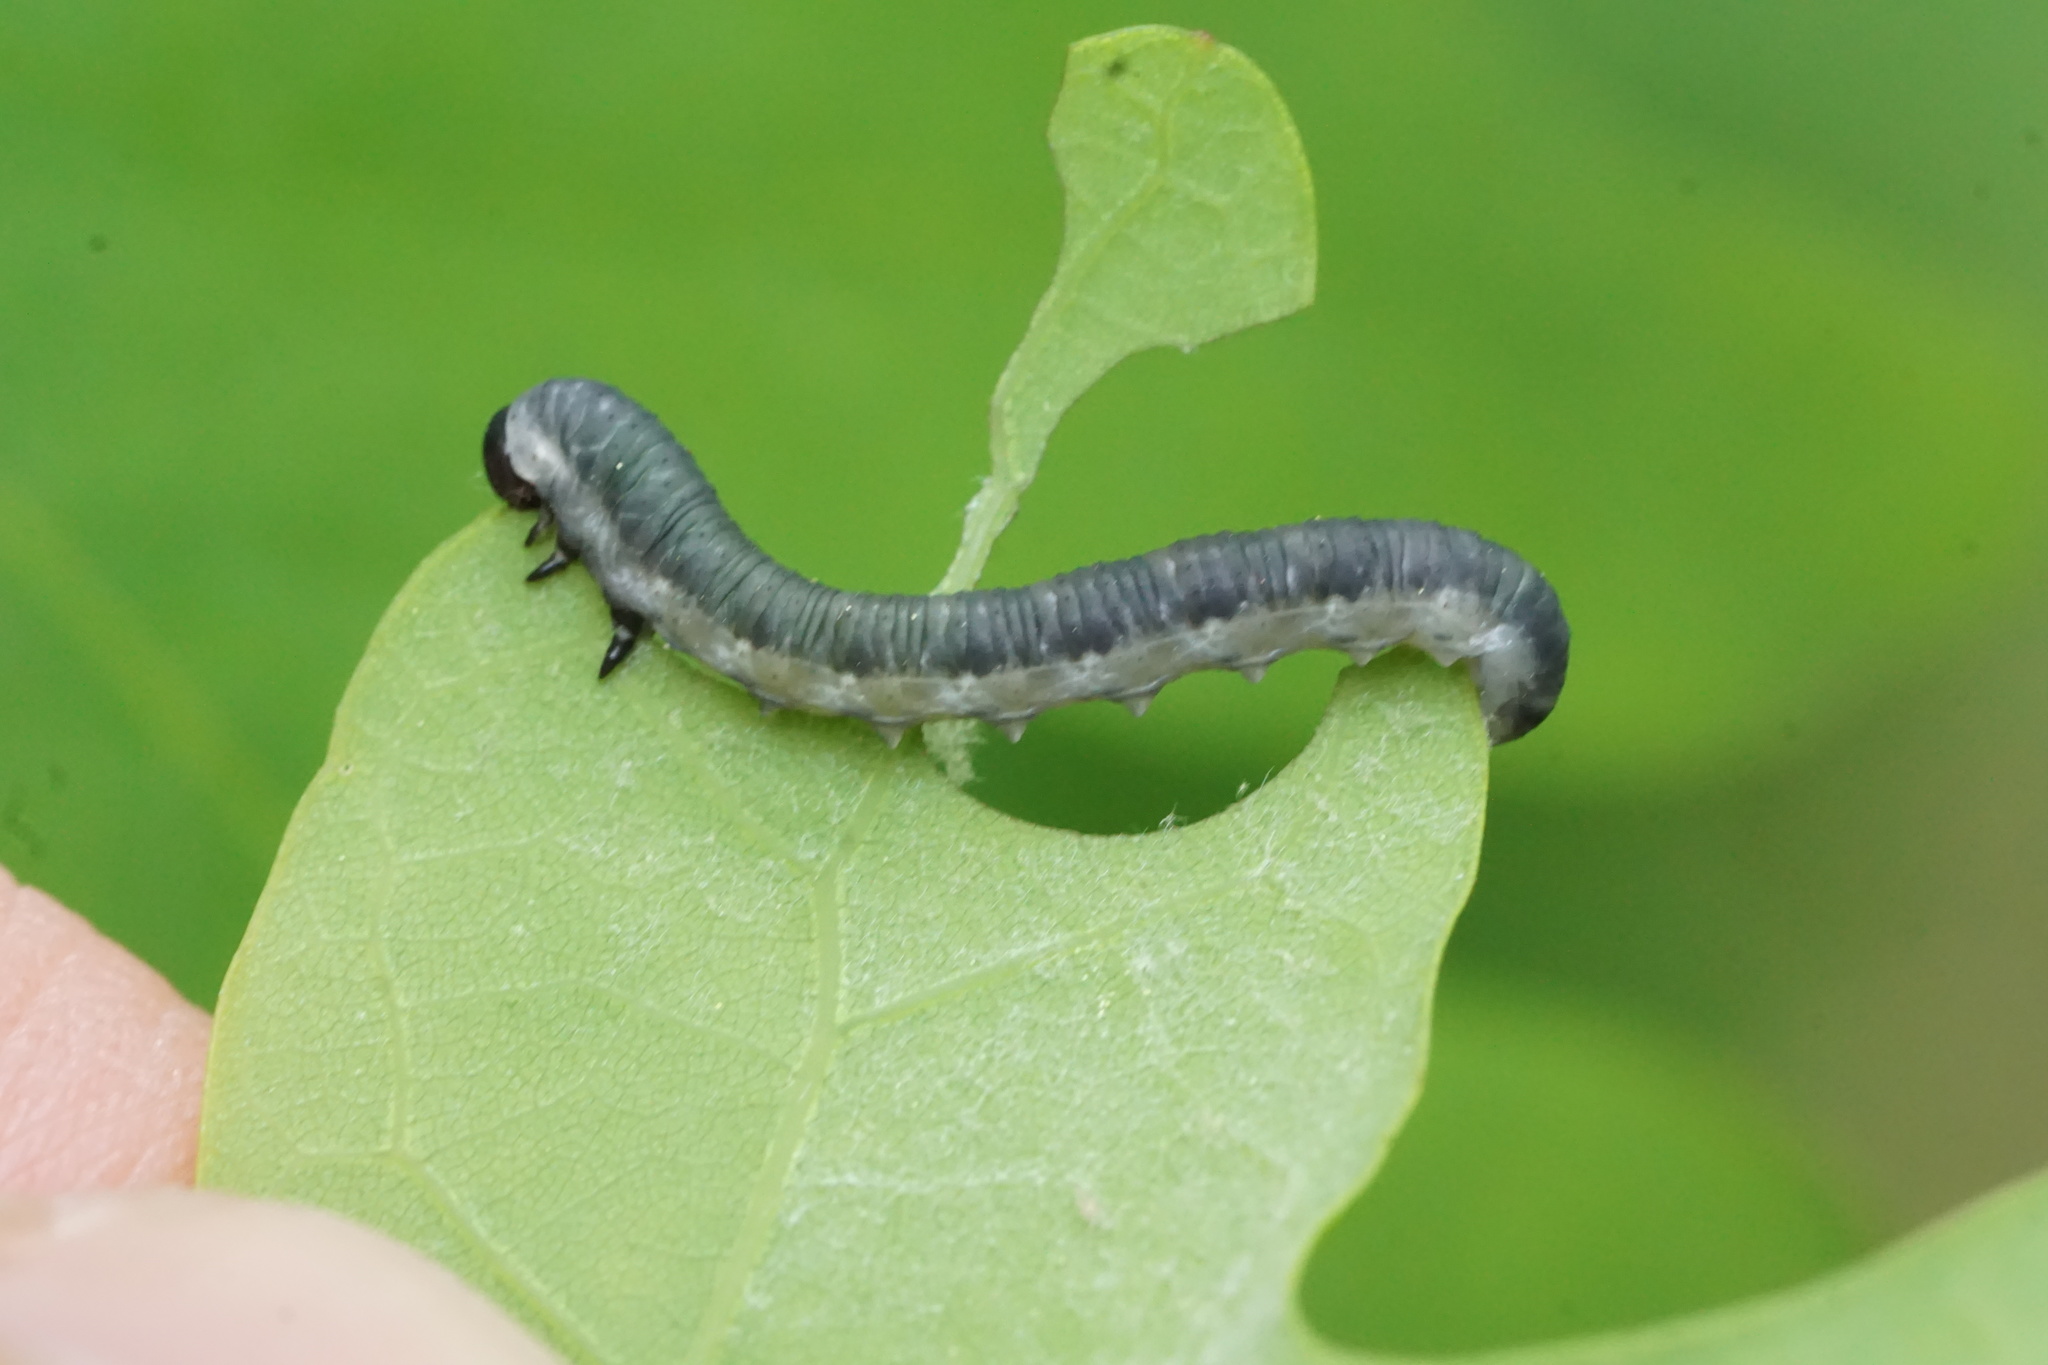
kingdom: Animalia
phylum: Arthropoda
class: Insecta
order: Hymenoptera
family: Tenthredinidae
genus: Craterocercus
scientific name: Craterocercus
